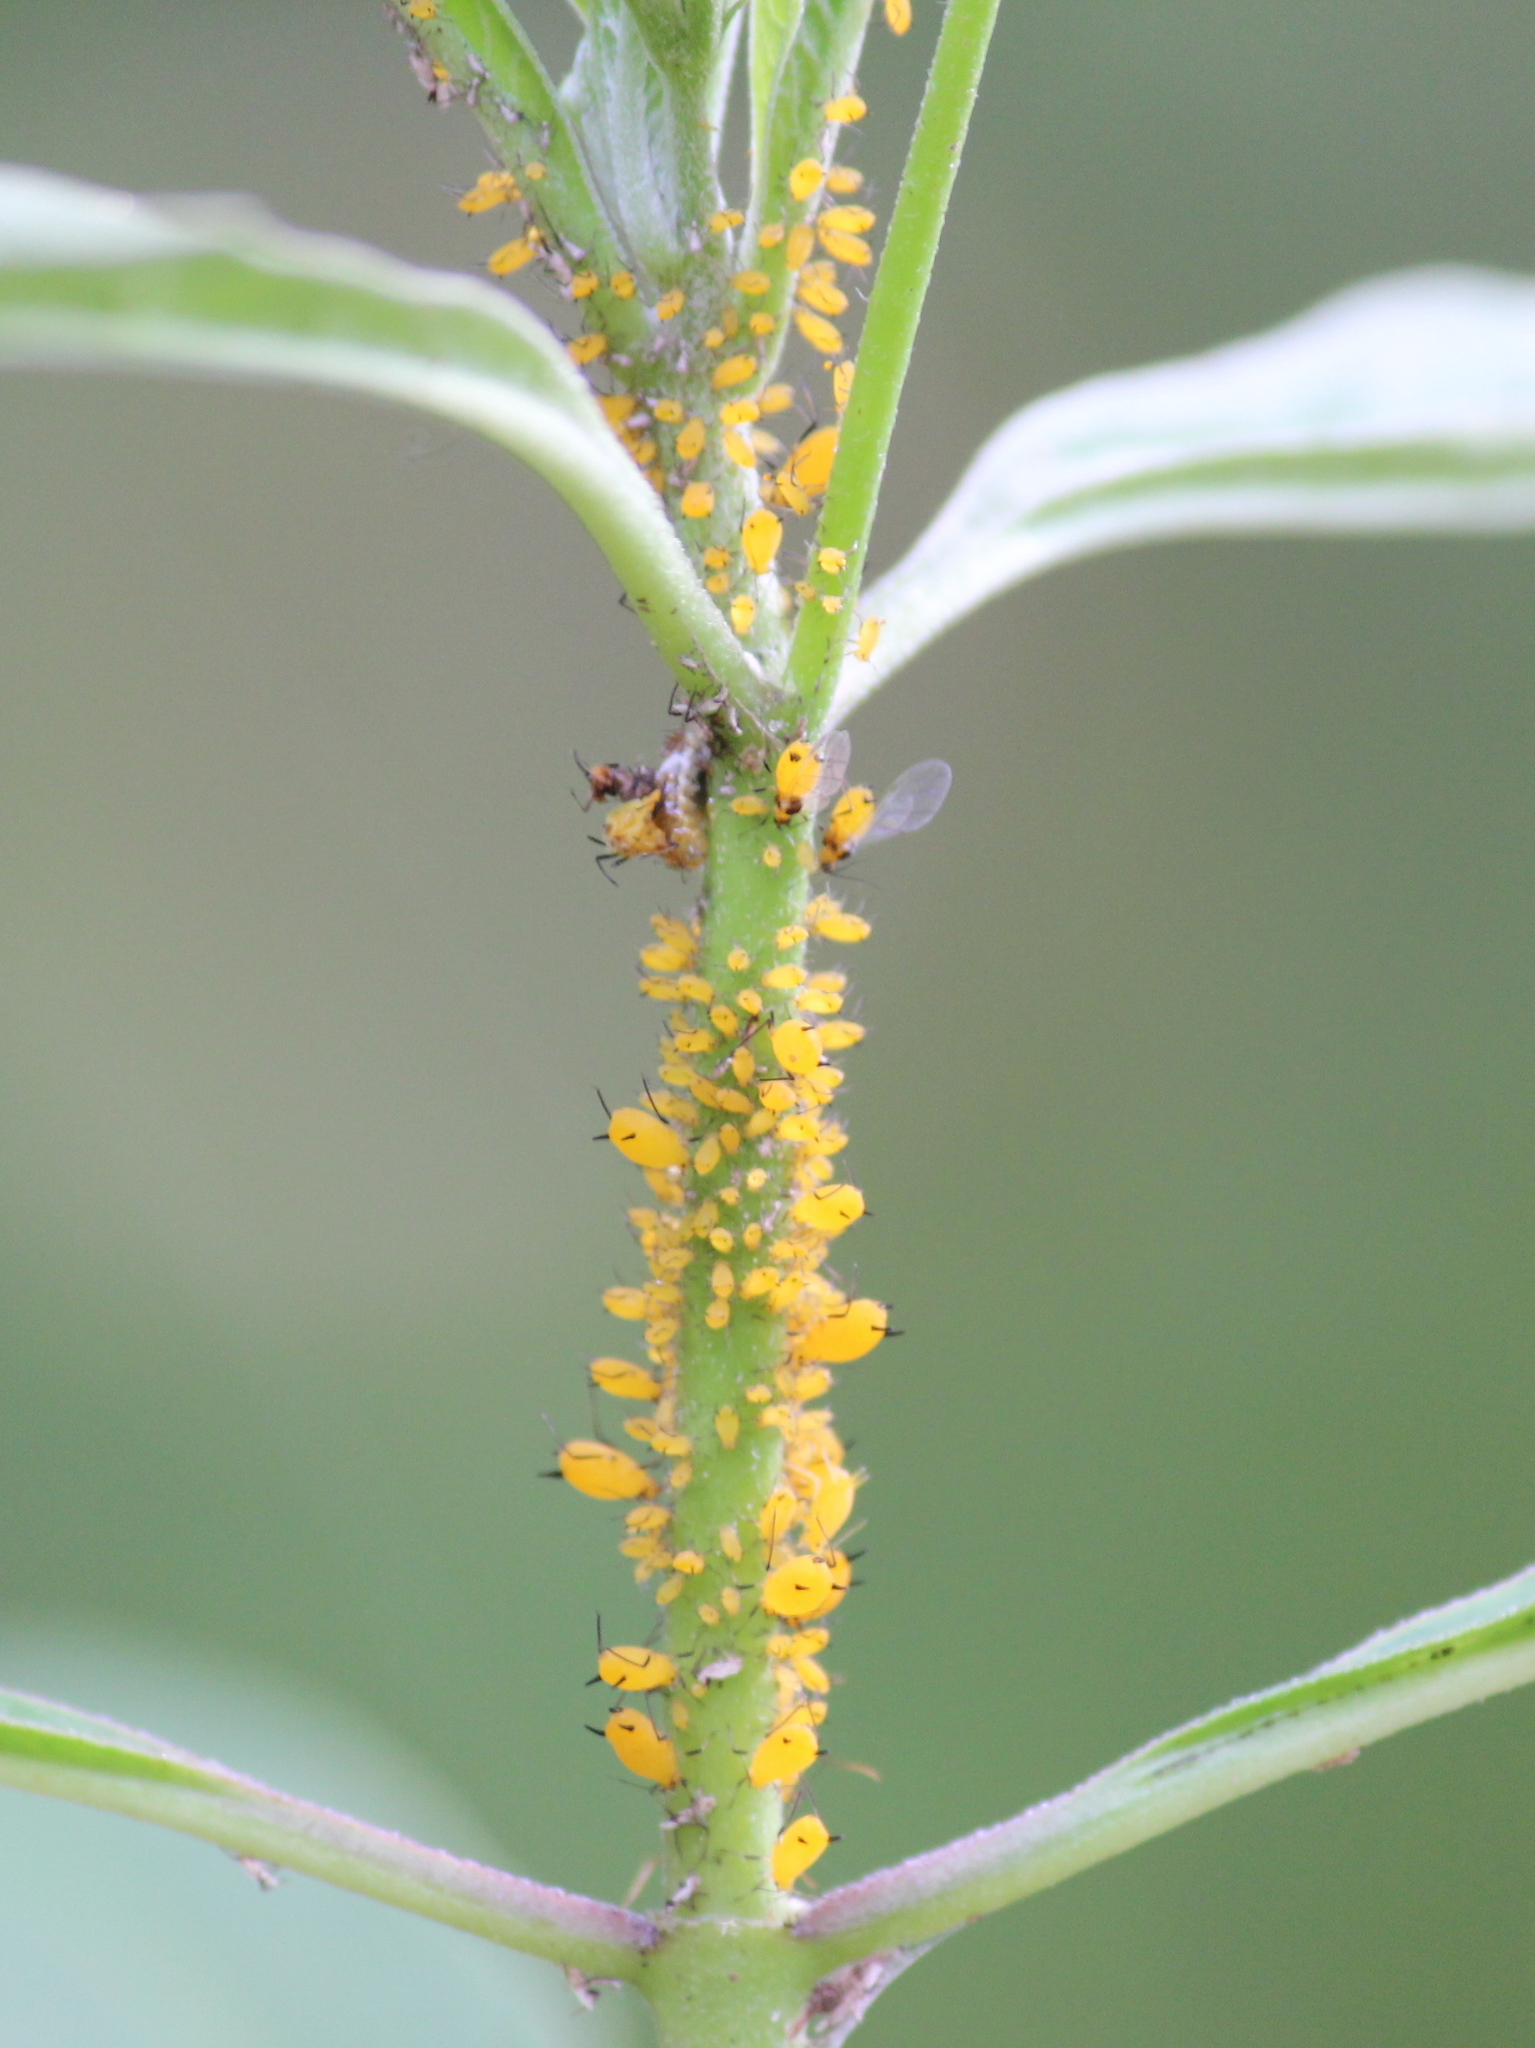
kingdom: Animalia
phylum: Arthropoda
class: Insecta
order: Hemiptera
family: Aphididae
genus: Aphis
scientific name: Aphis nerii
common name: Oleander aphid
